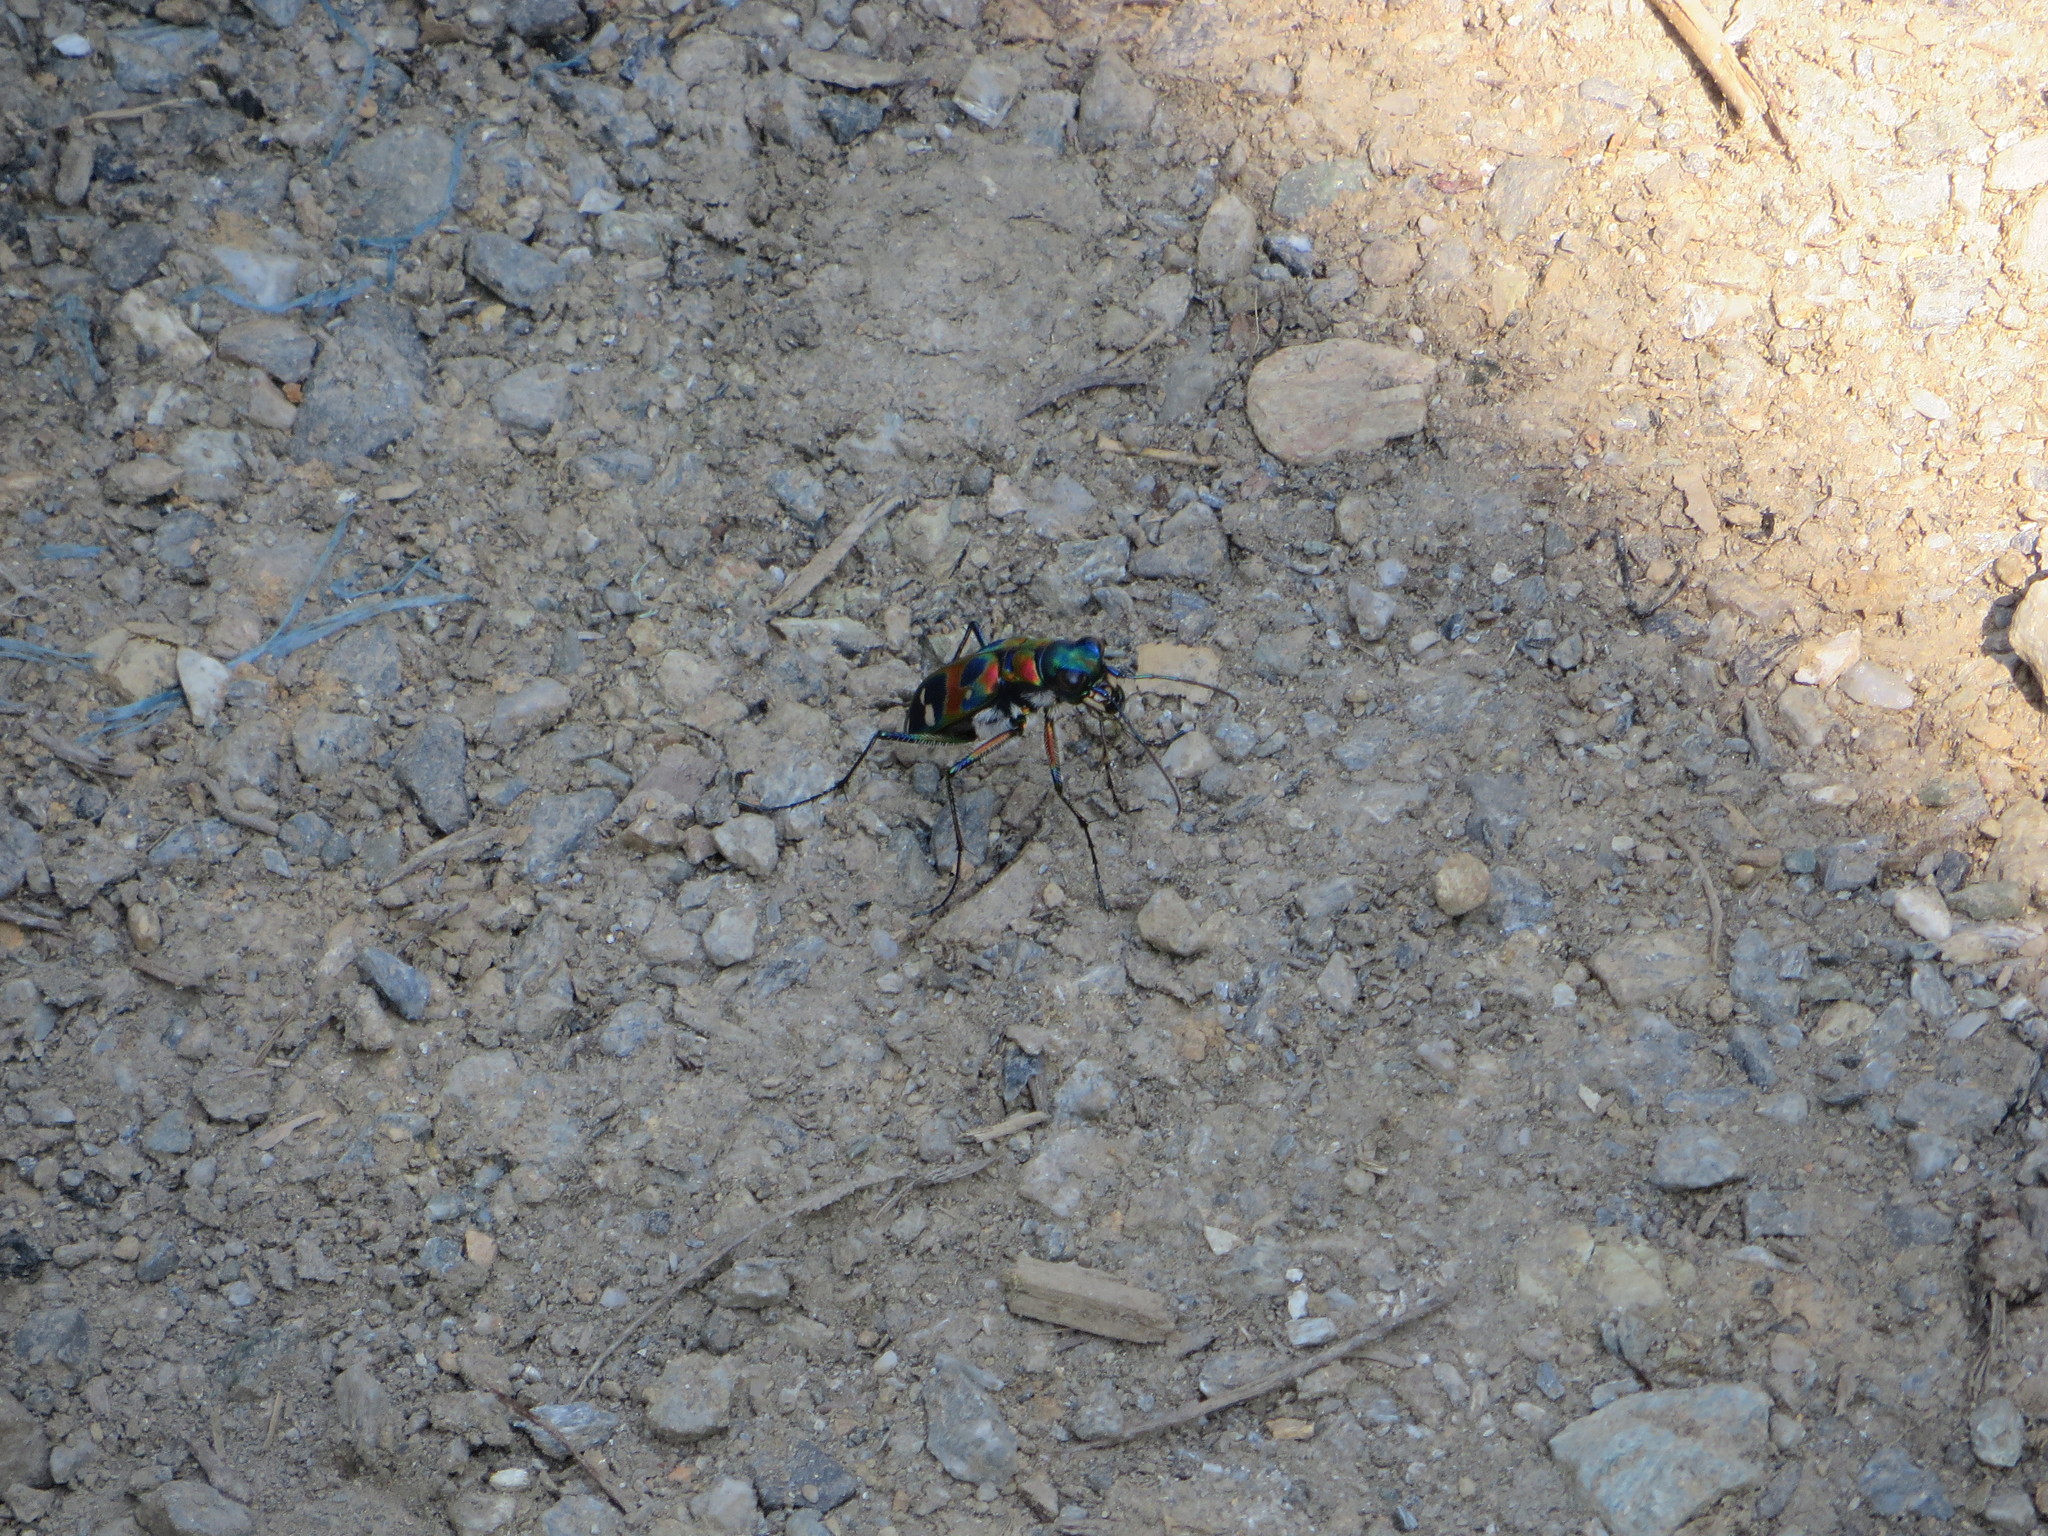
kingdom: Animalia
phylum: Arthropoda
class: Insecta
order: Coleoptera
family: Carabidae
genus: Cicindela
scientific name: Cicindela chinensis
